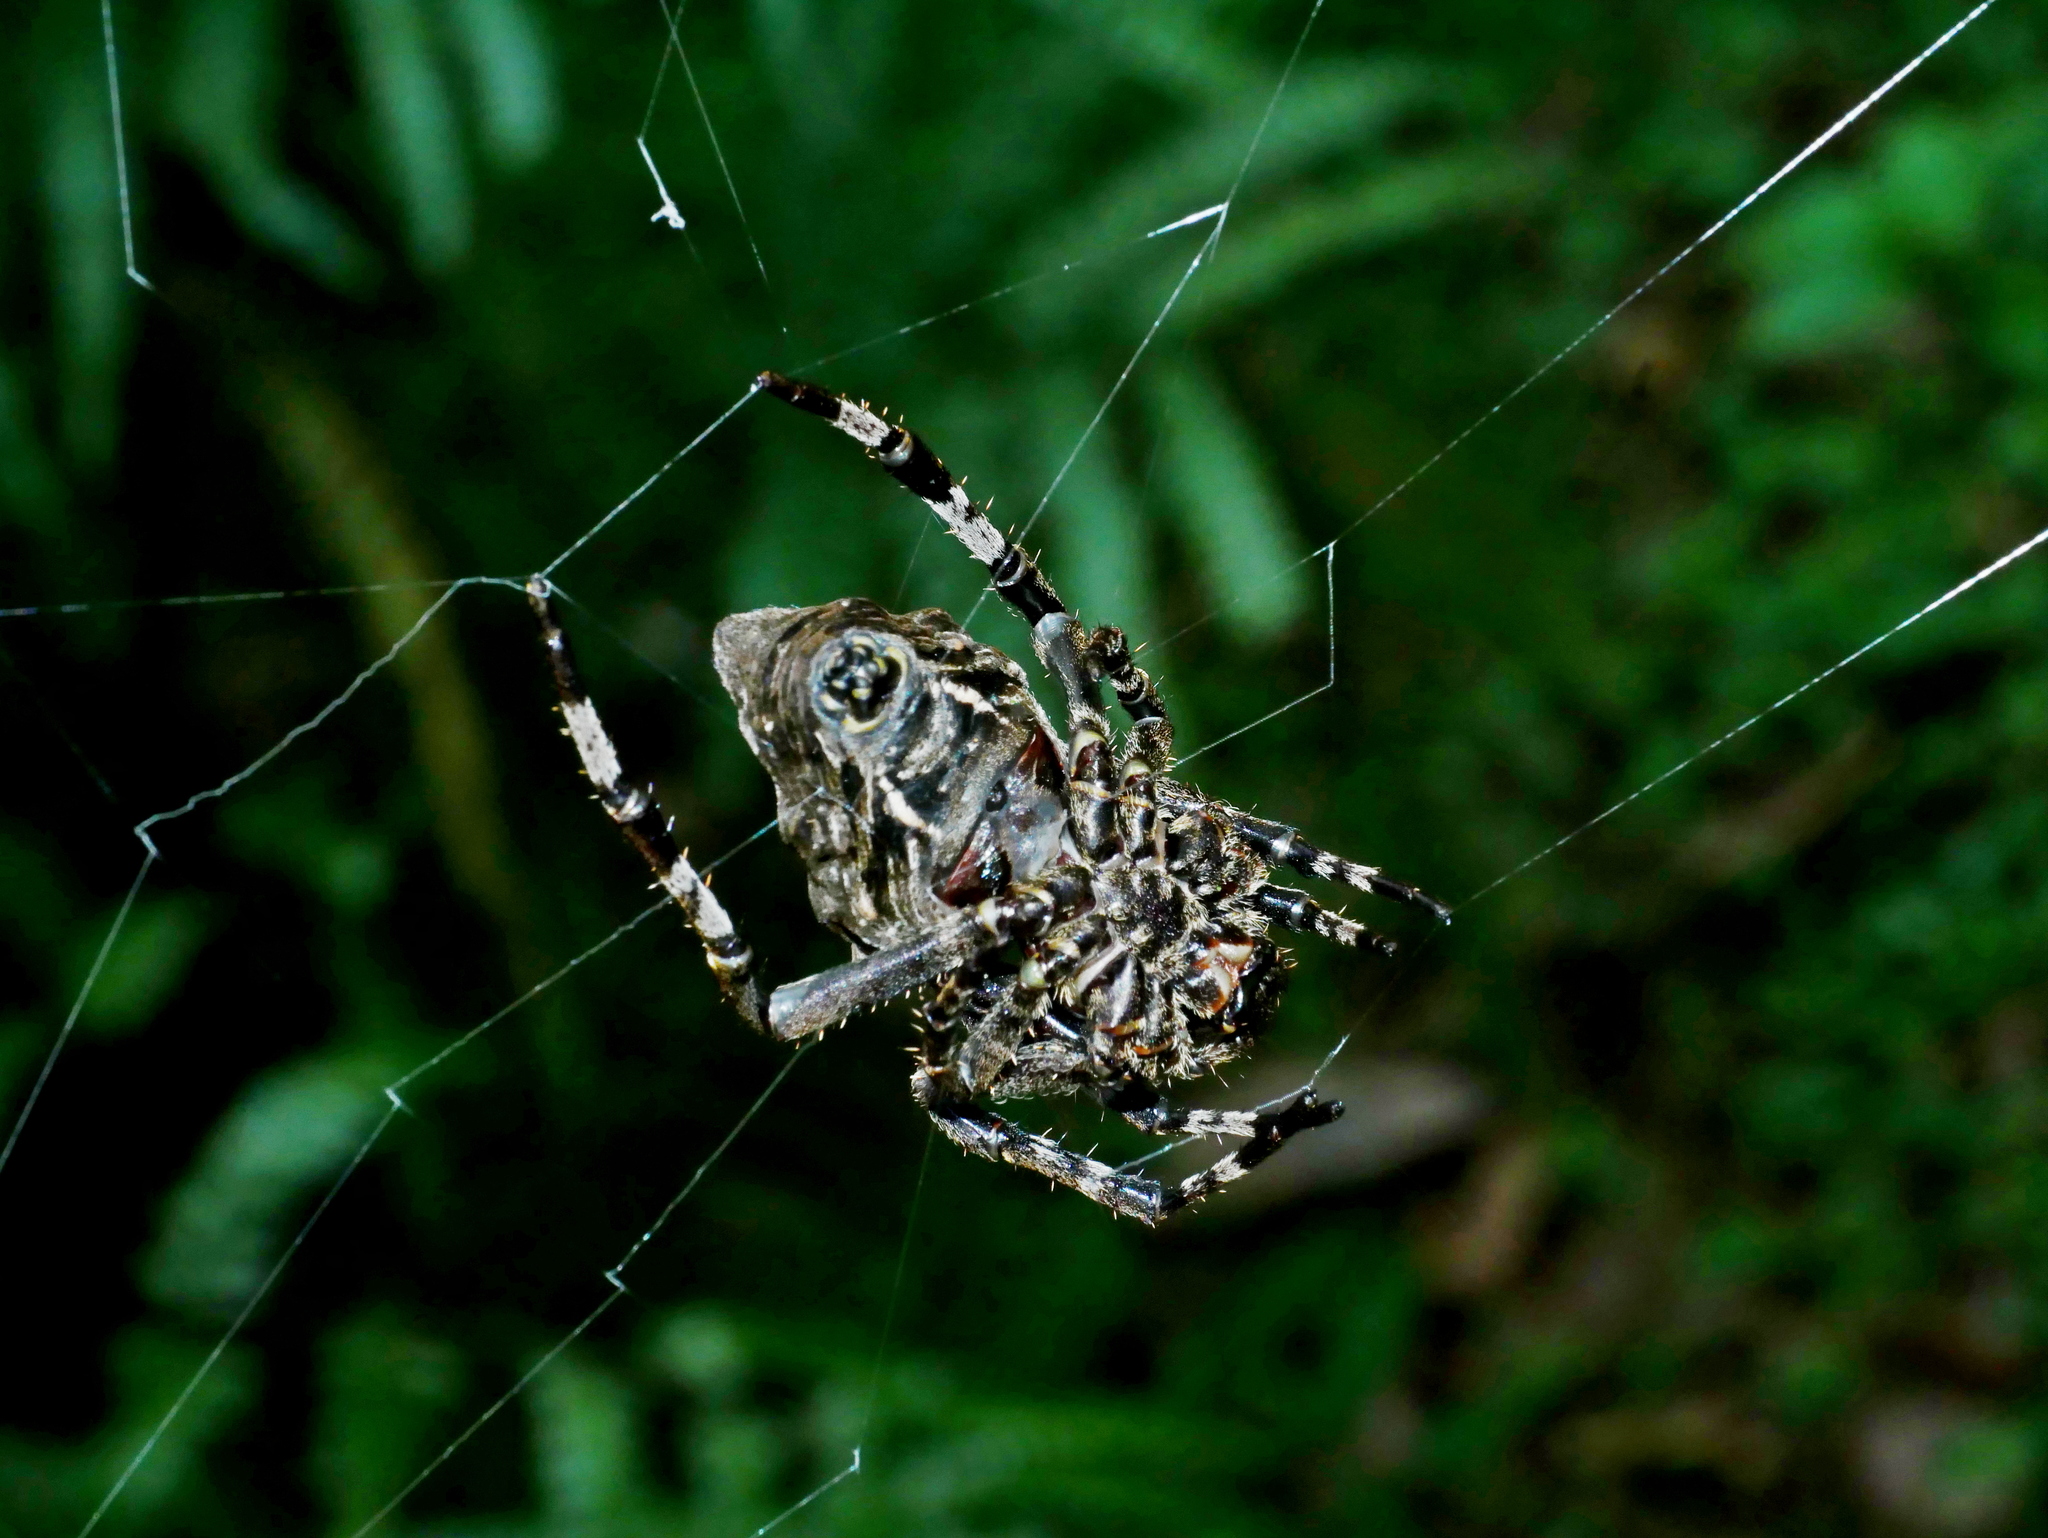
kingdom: Animalia
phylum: Arthropoda
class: Arachnida
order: Araneae
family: Araneidae
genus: Parawixia
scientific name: Parawixia dehaani
